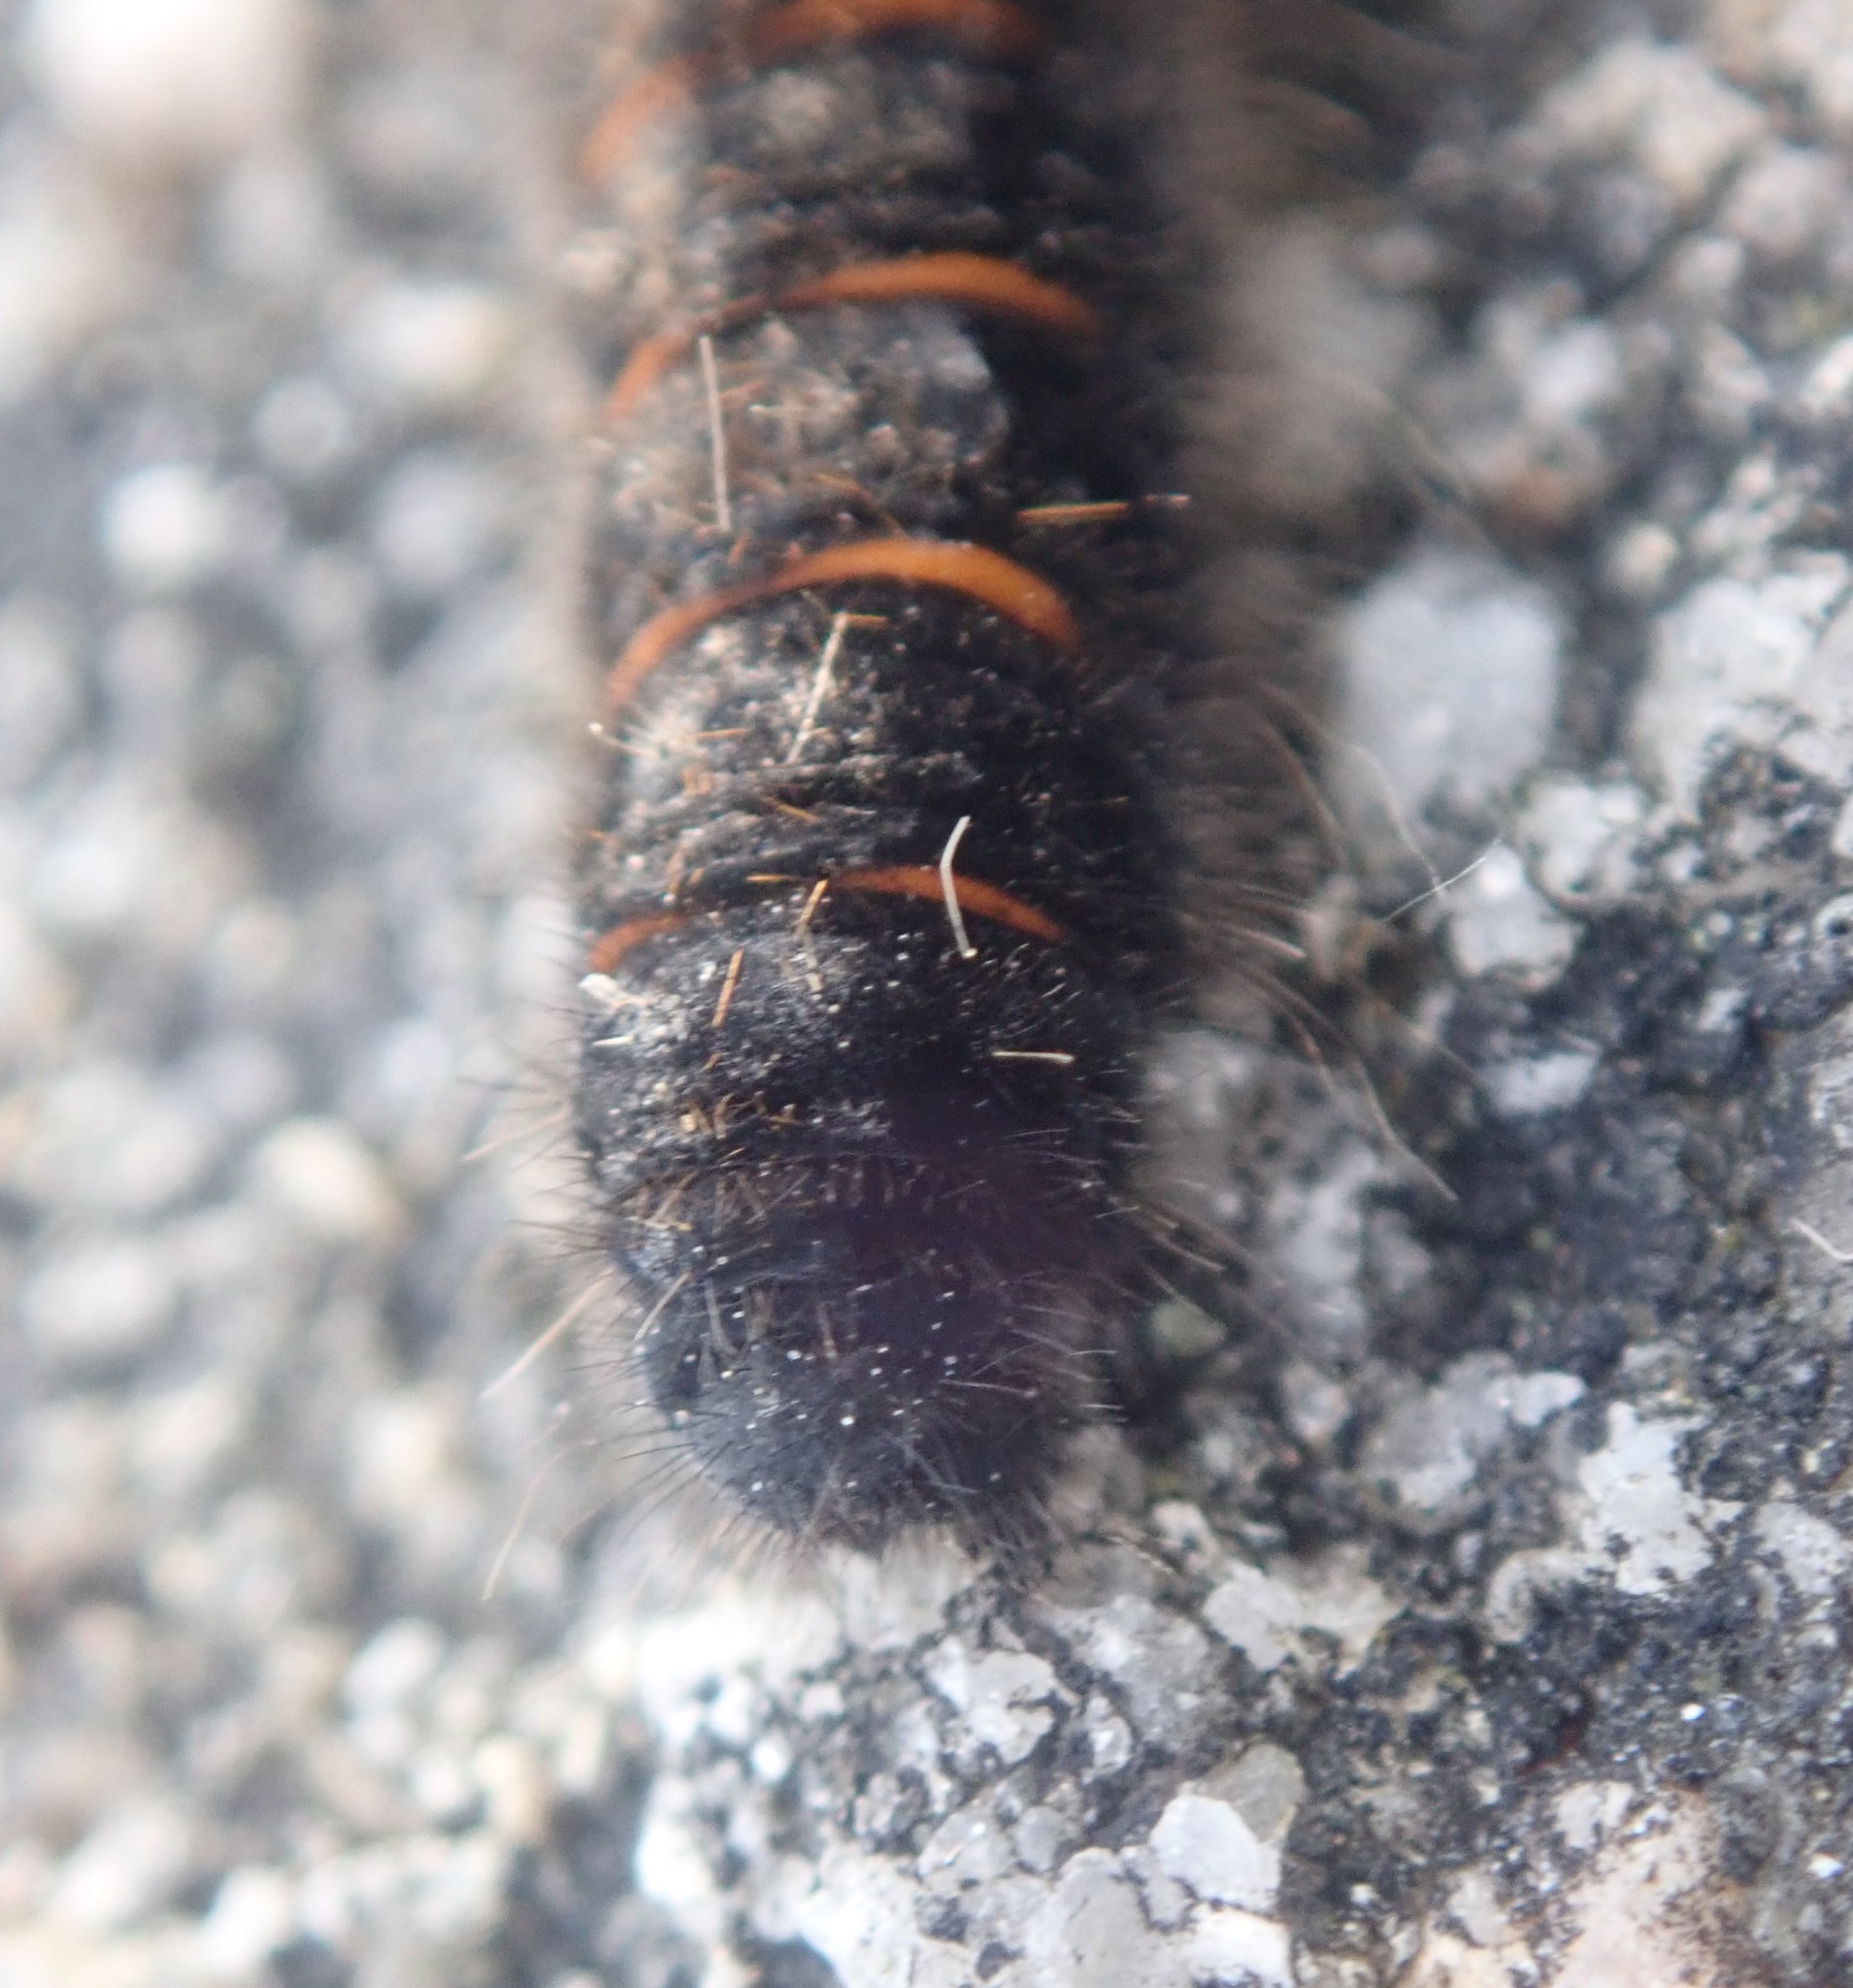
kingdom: Animalia
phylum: Arthropoda
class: Insecta
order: Lepidoptera
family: Lasiocampidae
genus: Macrothylacia
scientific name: Macrothylacia rubi
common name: Fox moth
